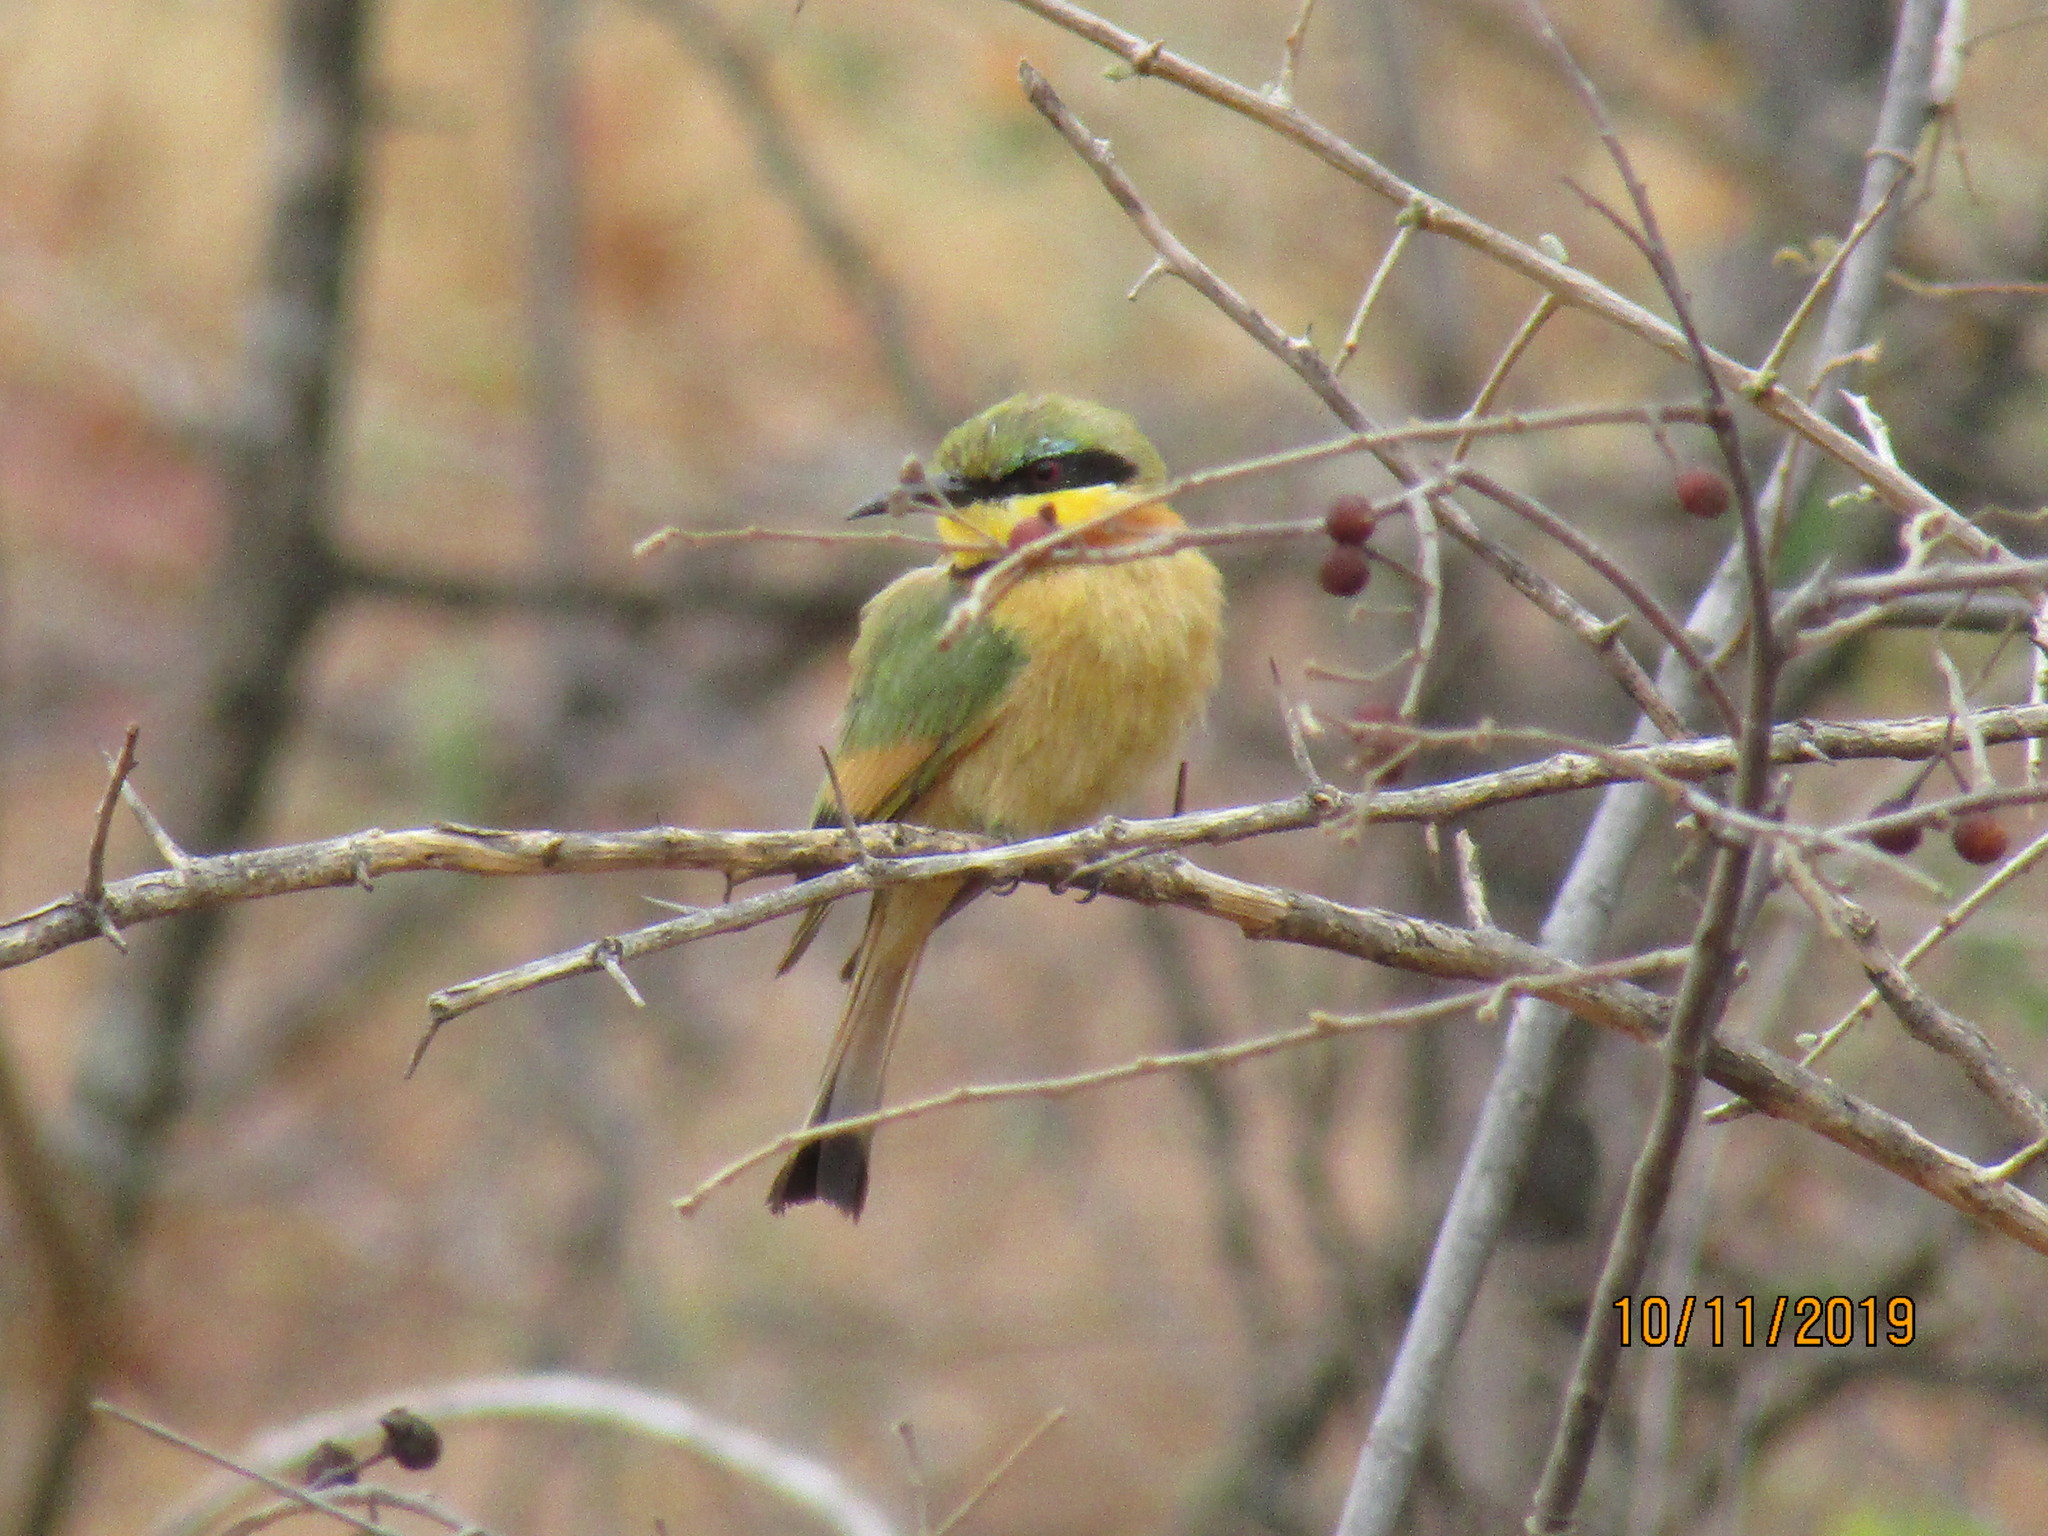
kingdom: Animalia
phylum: Chordata
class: Aves
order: Coraciiformes
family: Meropidae
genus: Merops
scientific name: Merops pusillus
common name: Little bee-eater
